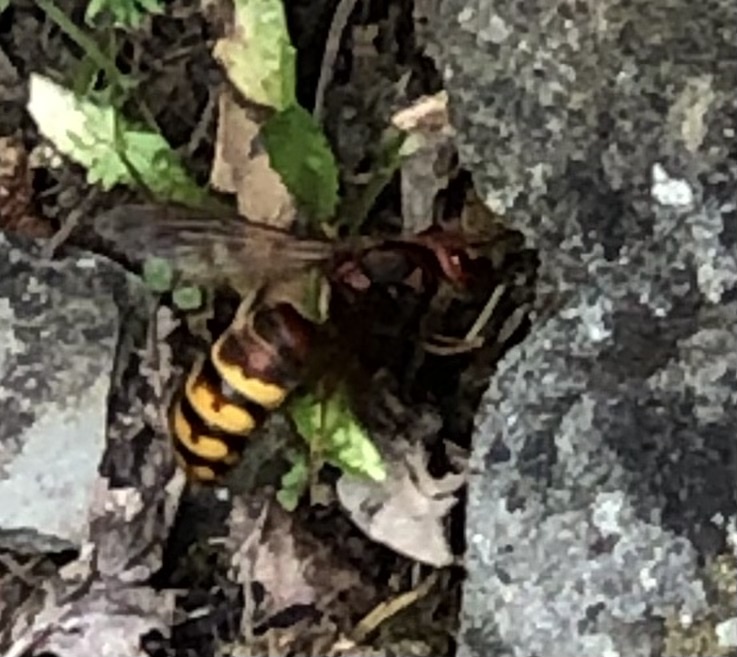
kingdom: Animalia
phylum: Arthropoda
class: Insecta
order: Hymenoptera
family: Vespidae
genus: Vespa
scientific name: Vespa crabro
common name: Hornet
